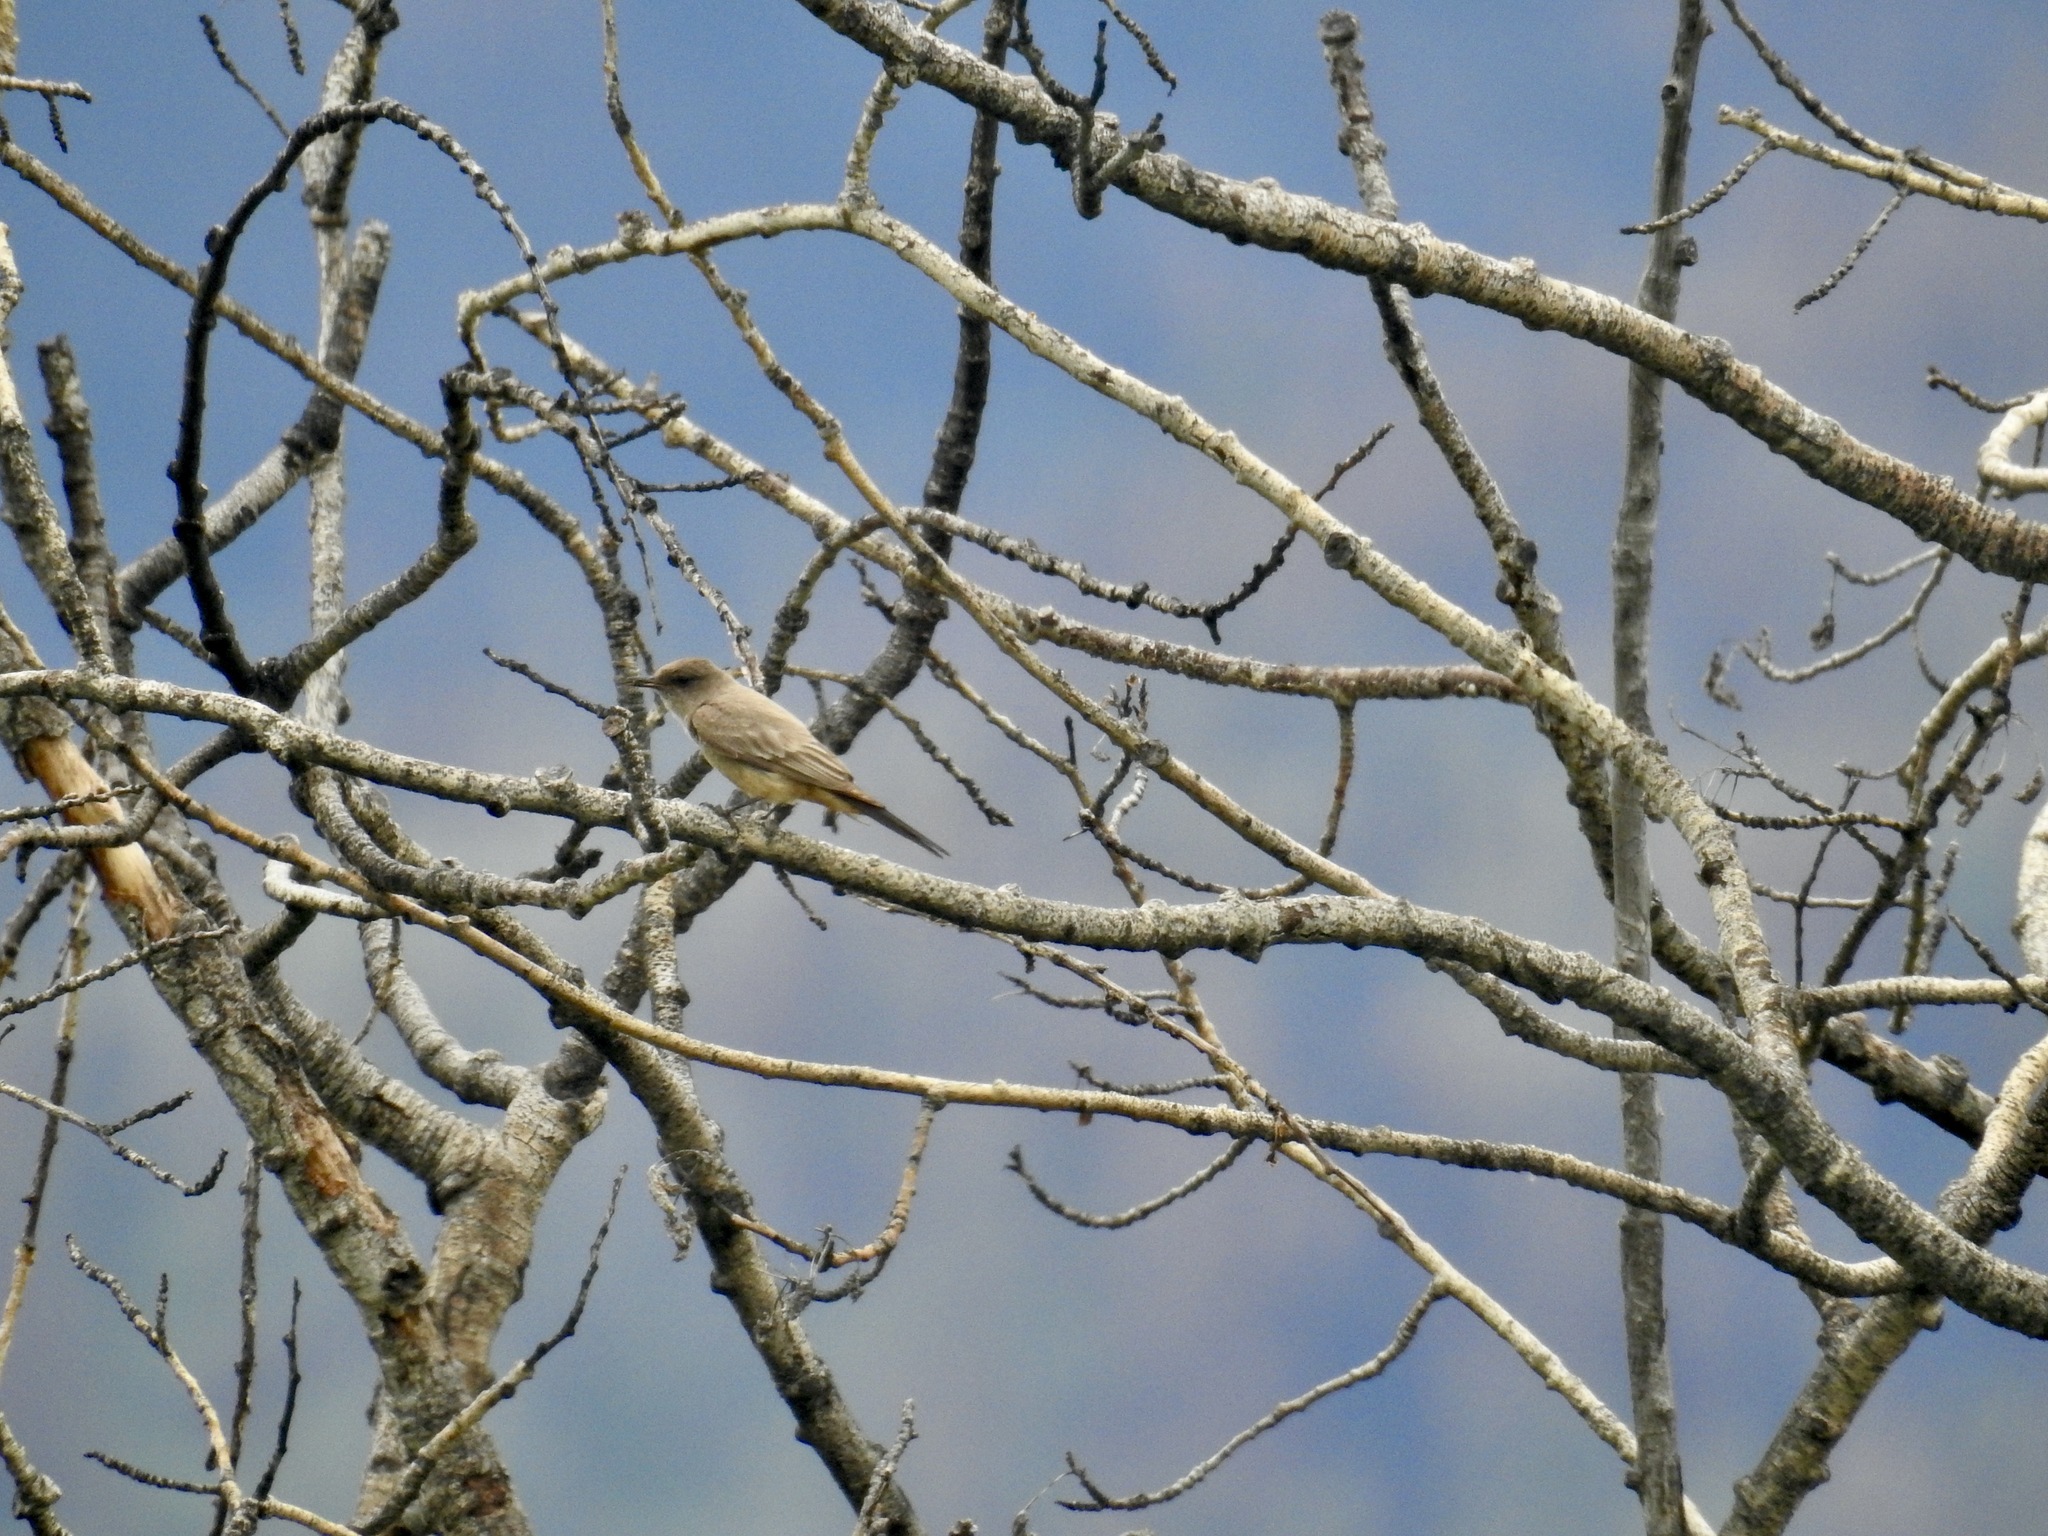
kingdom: Animalia
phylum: Chordata
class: Aves
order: Passeriformes
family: Tyrannidae
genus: Sayornis
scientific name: Sayornis saya
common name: Say's phoebe
